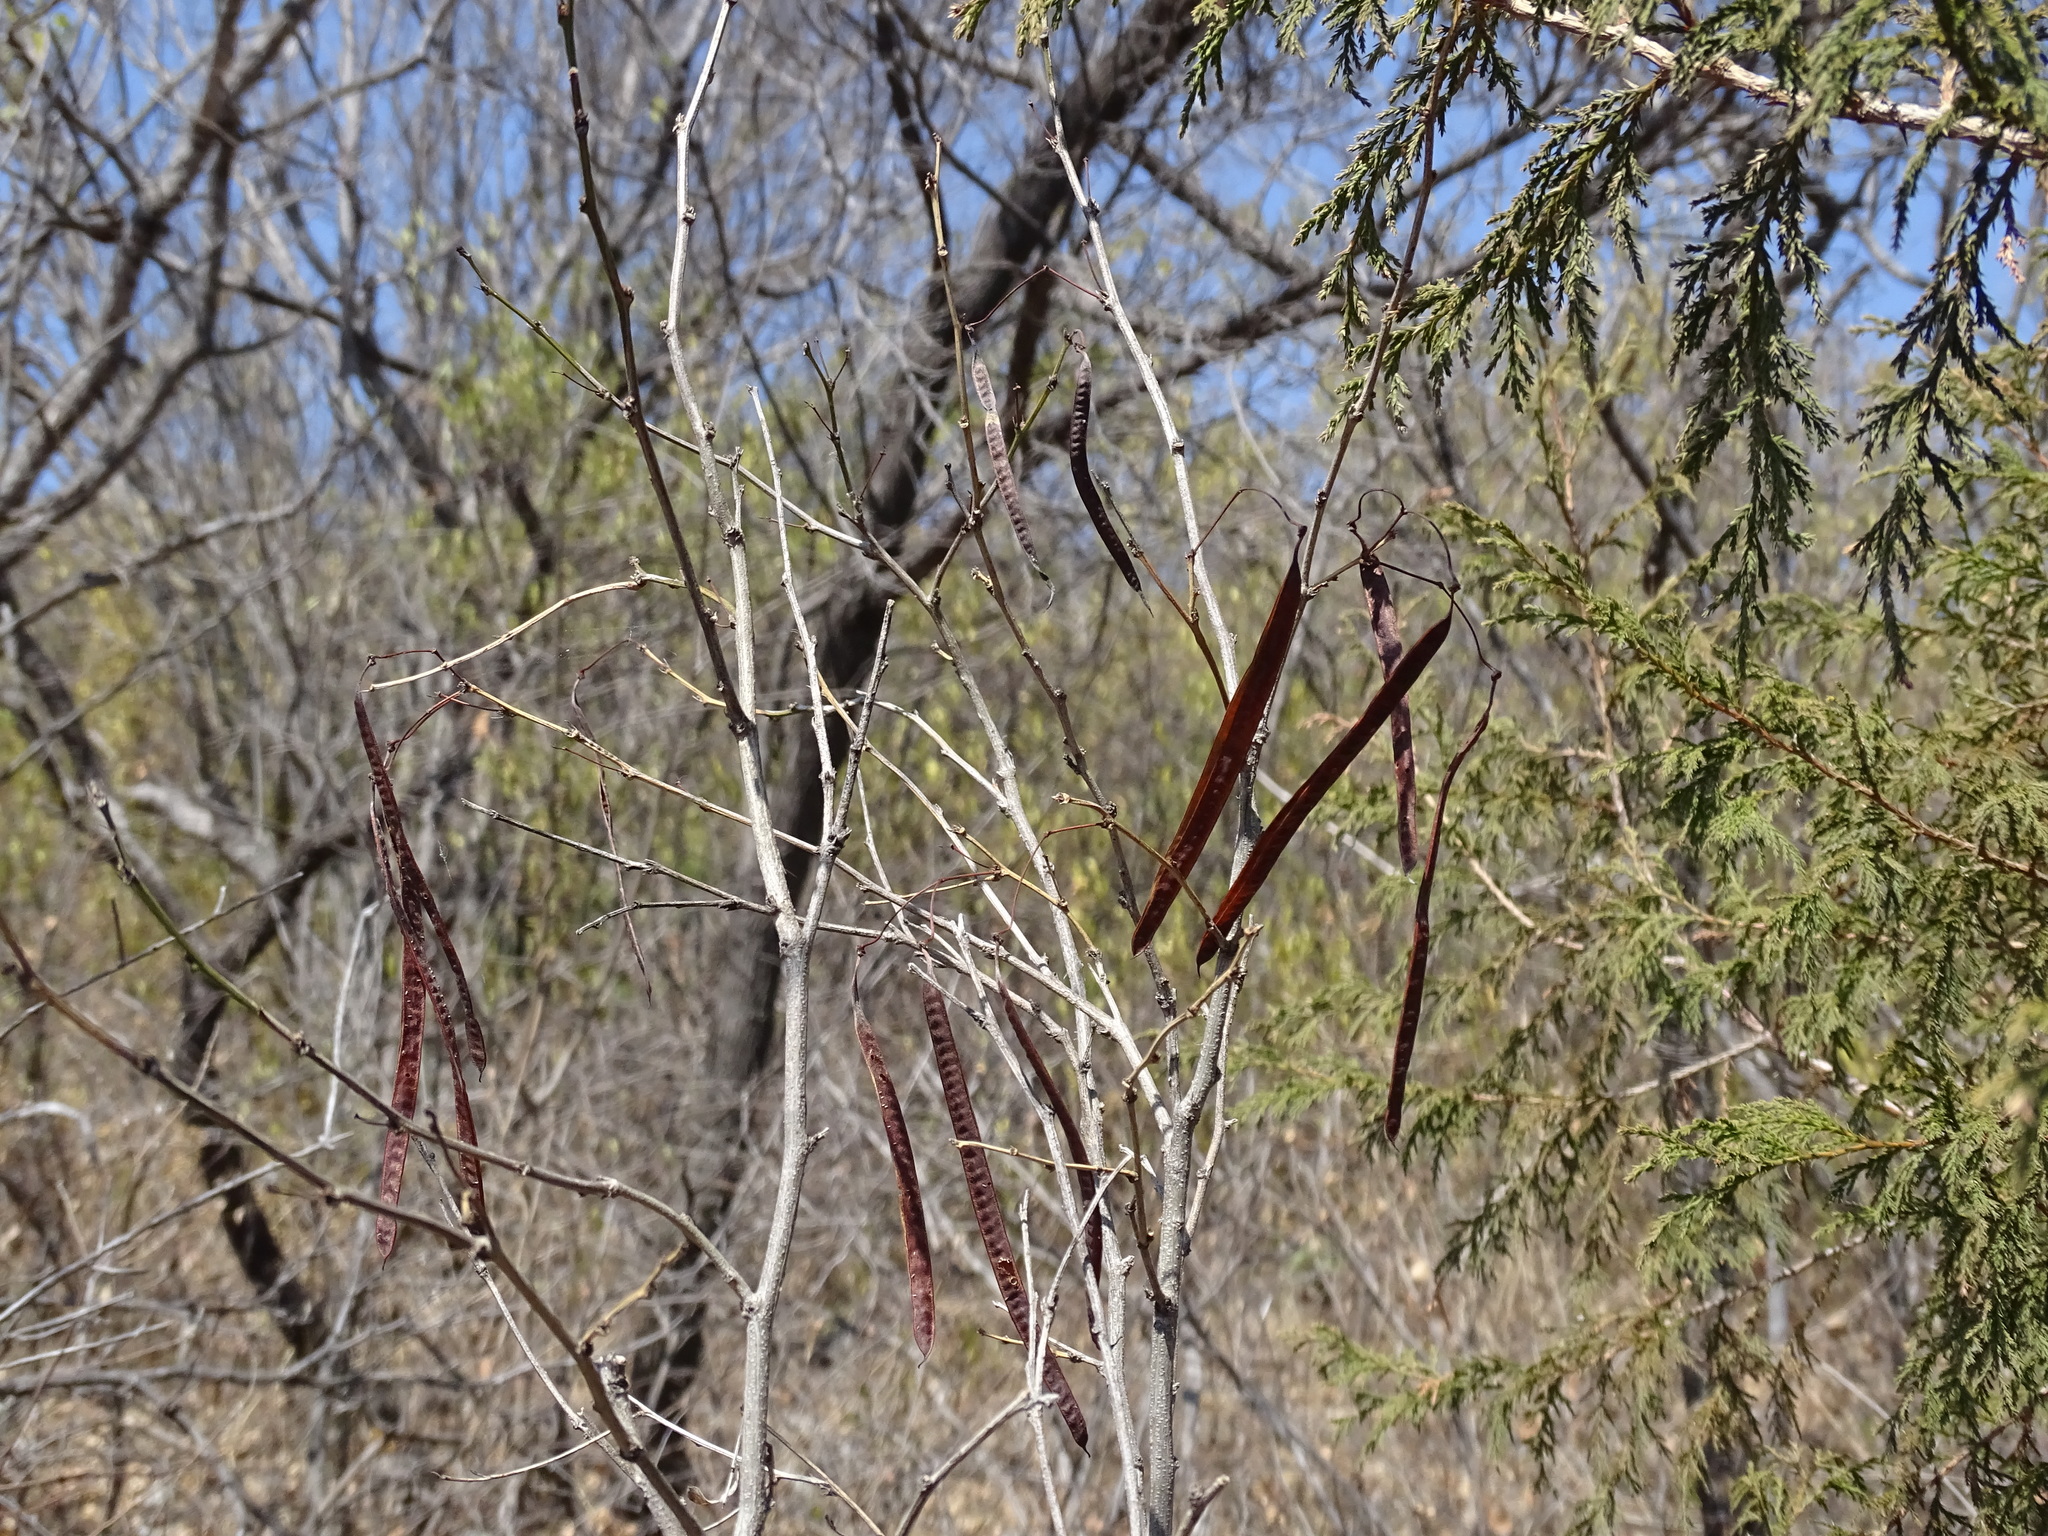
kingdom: Plantae
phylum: Tracheophyta
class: Magnoliopsida
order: Fabales
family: Fabaceae
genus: Senna
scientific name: Senna wislizeni
